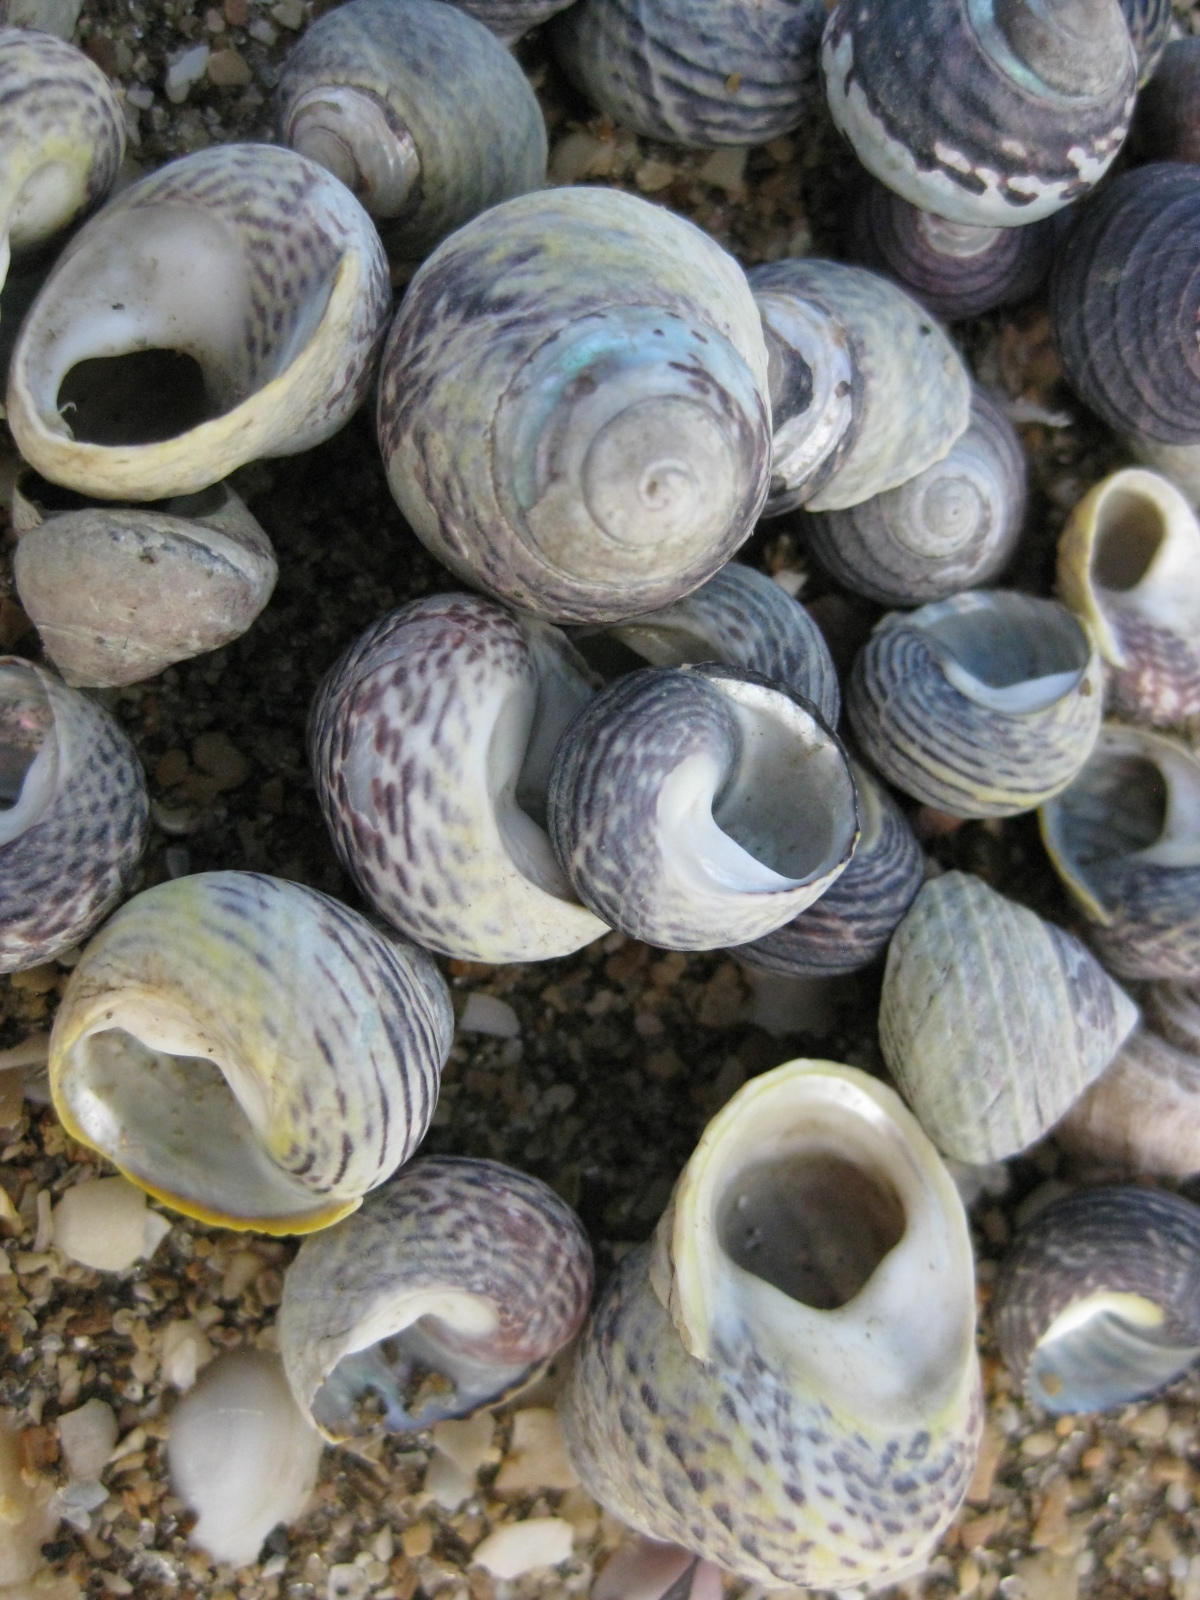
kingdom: Animalia
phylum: Mollusca
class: Gastropoda
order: Trochida
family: Trochidae
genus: Diloma
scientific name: Diloma subrostratum
